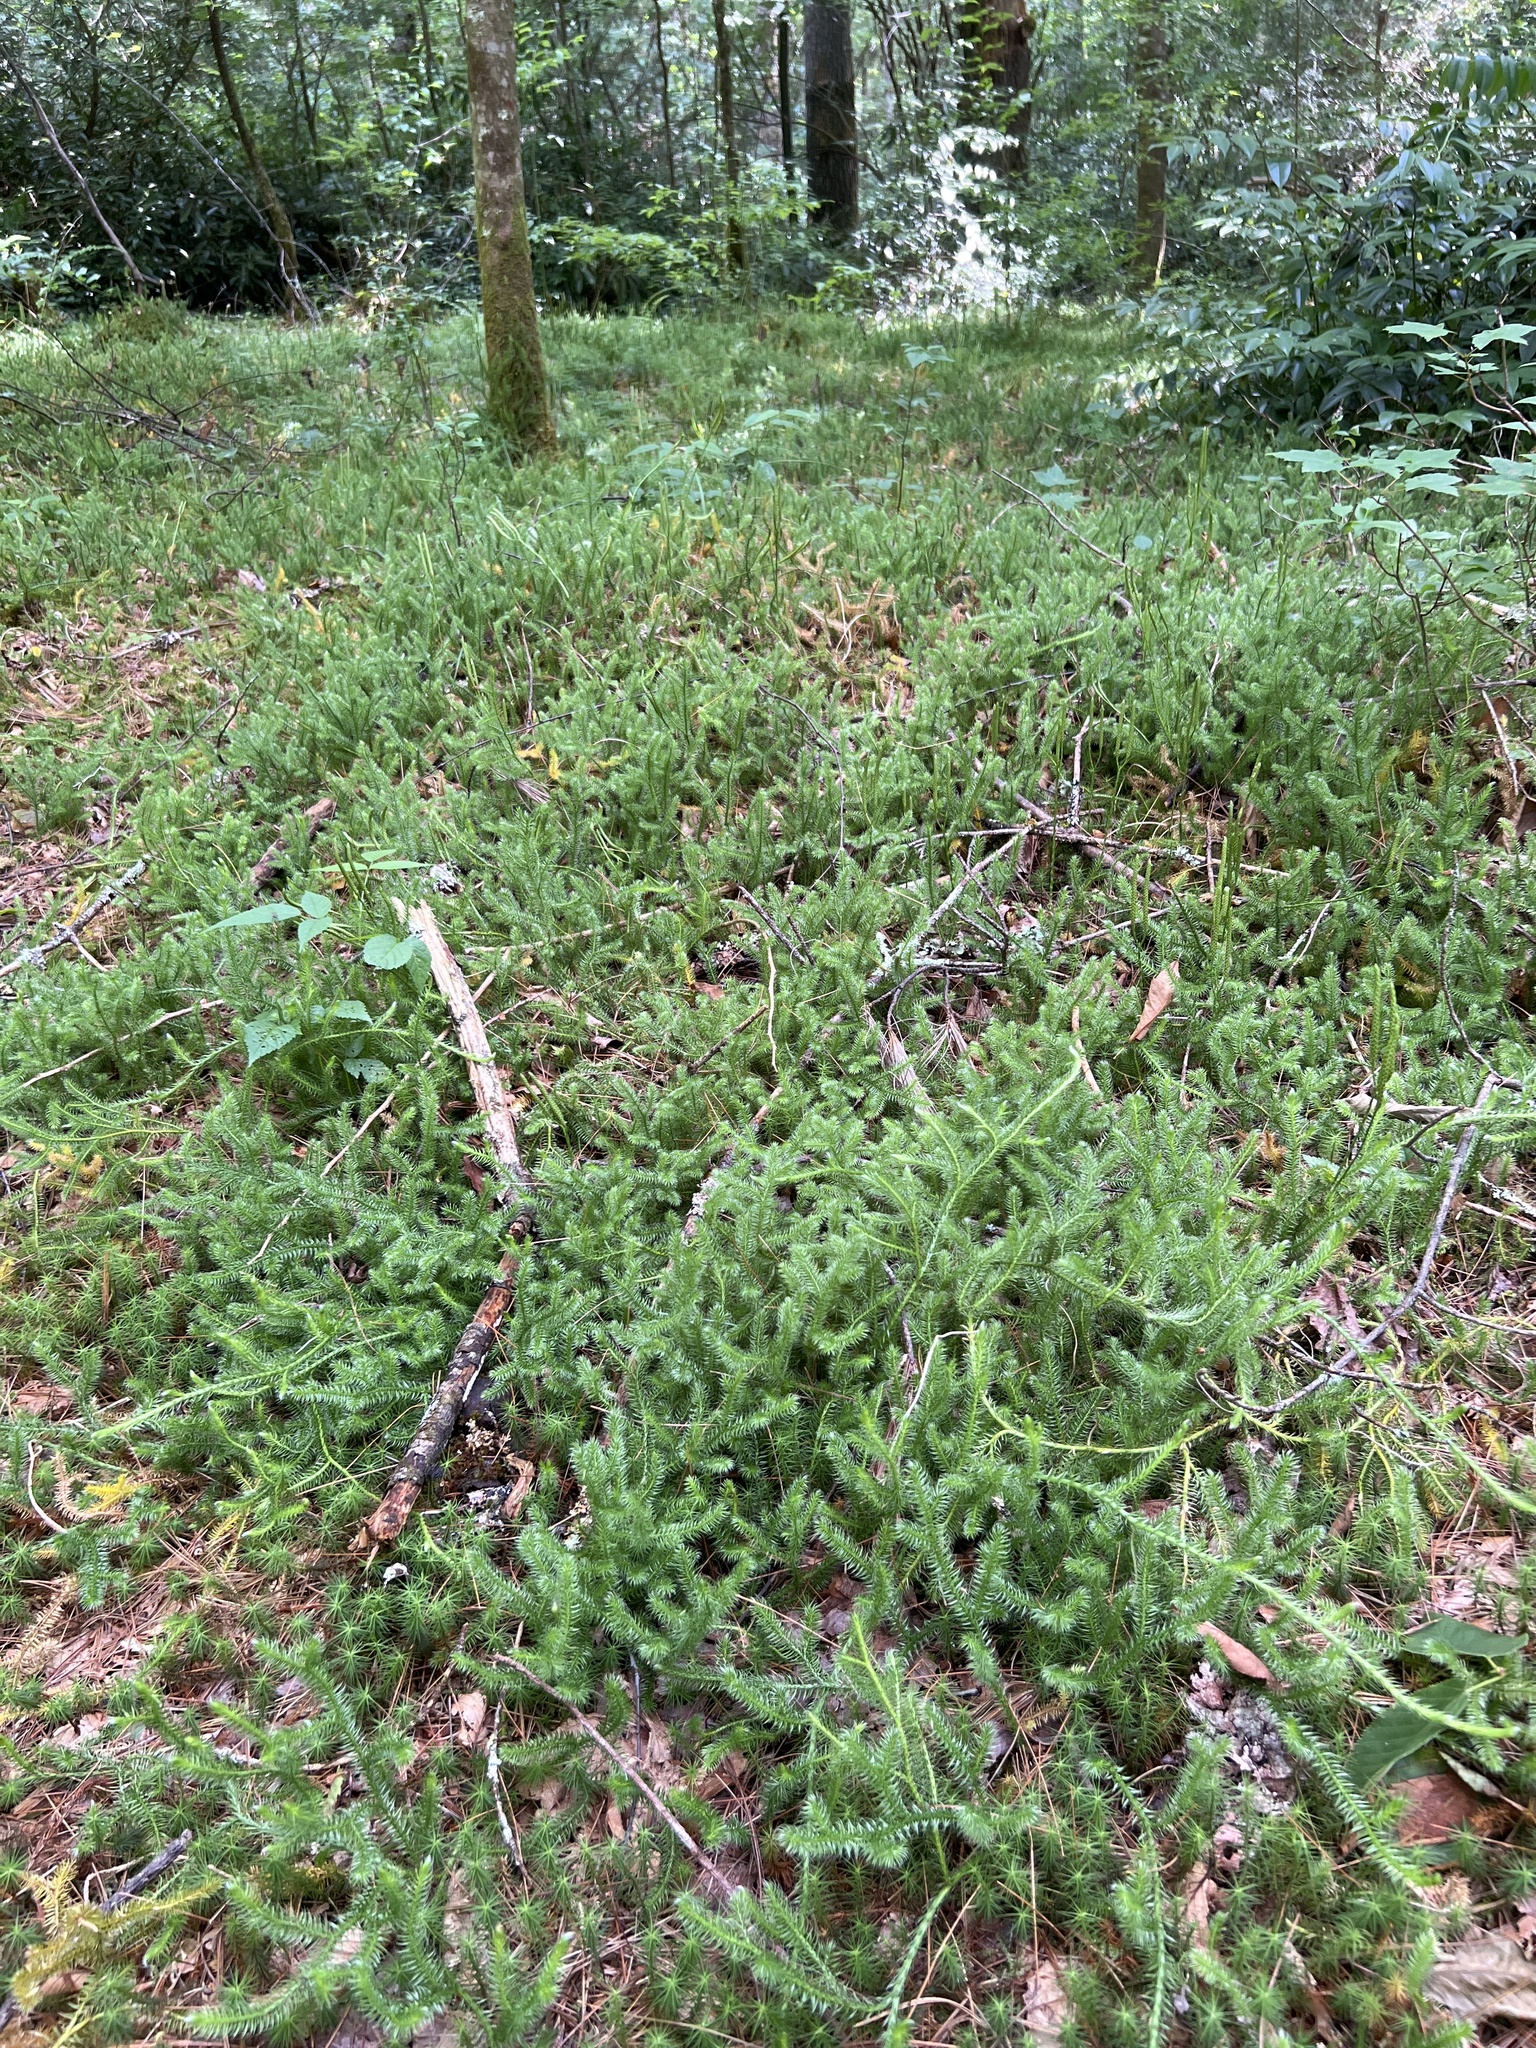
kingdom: Plantae
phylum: Tracheophyta
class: Lycopodiopsida
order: Lycopodiales
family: Lycopodiaceae
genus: Lycopodium
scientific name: Lycopodium clavatum
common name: Stag's-horn clubmoss
